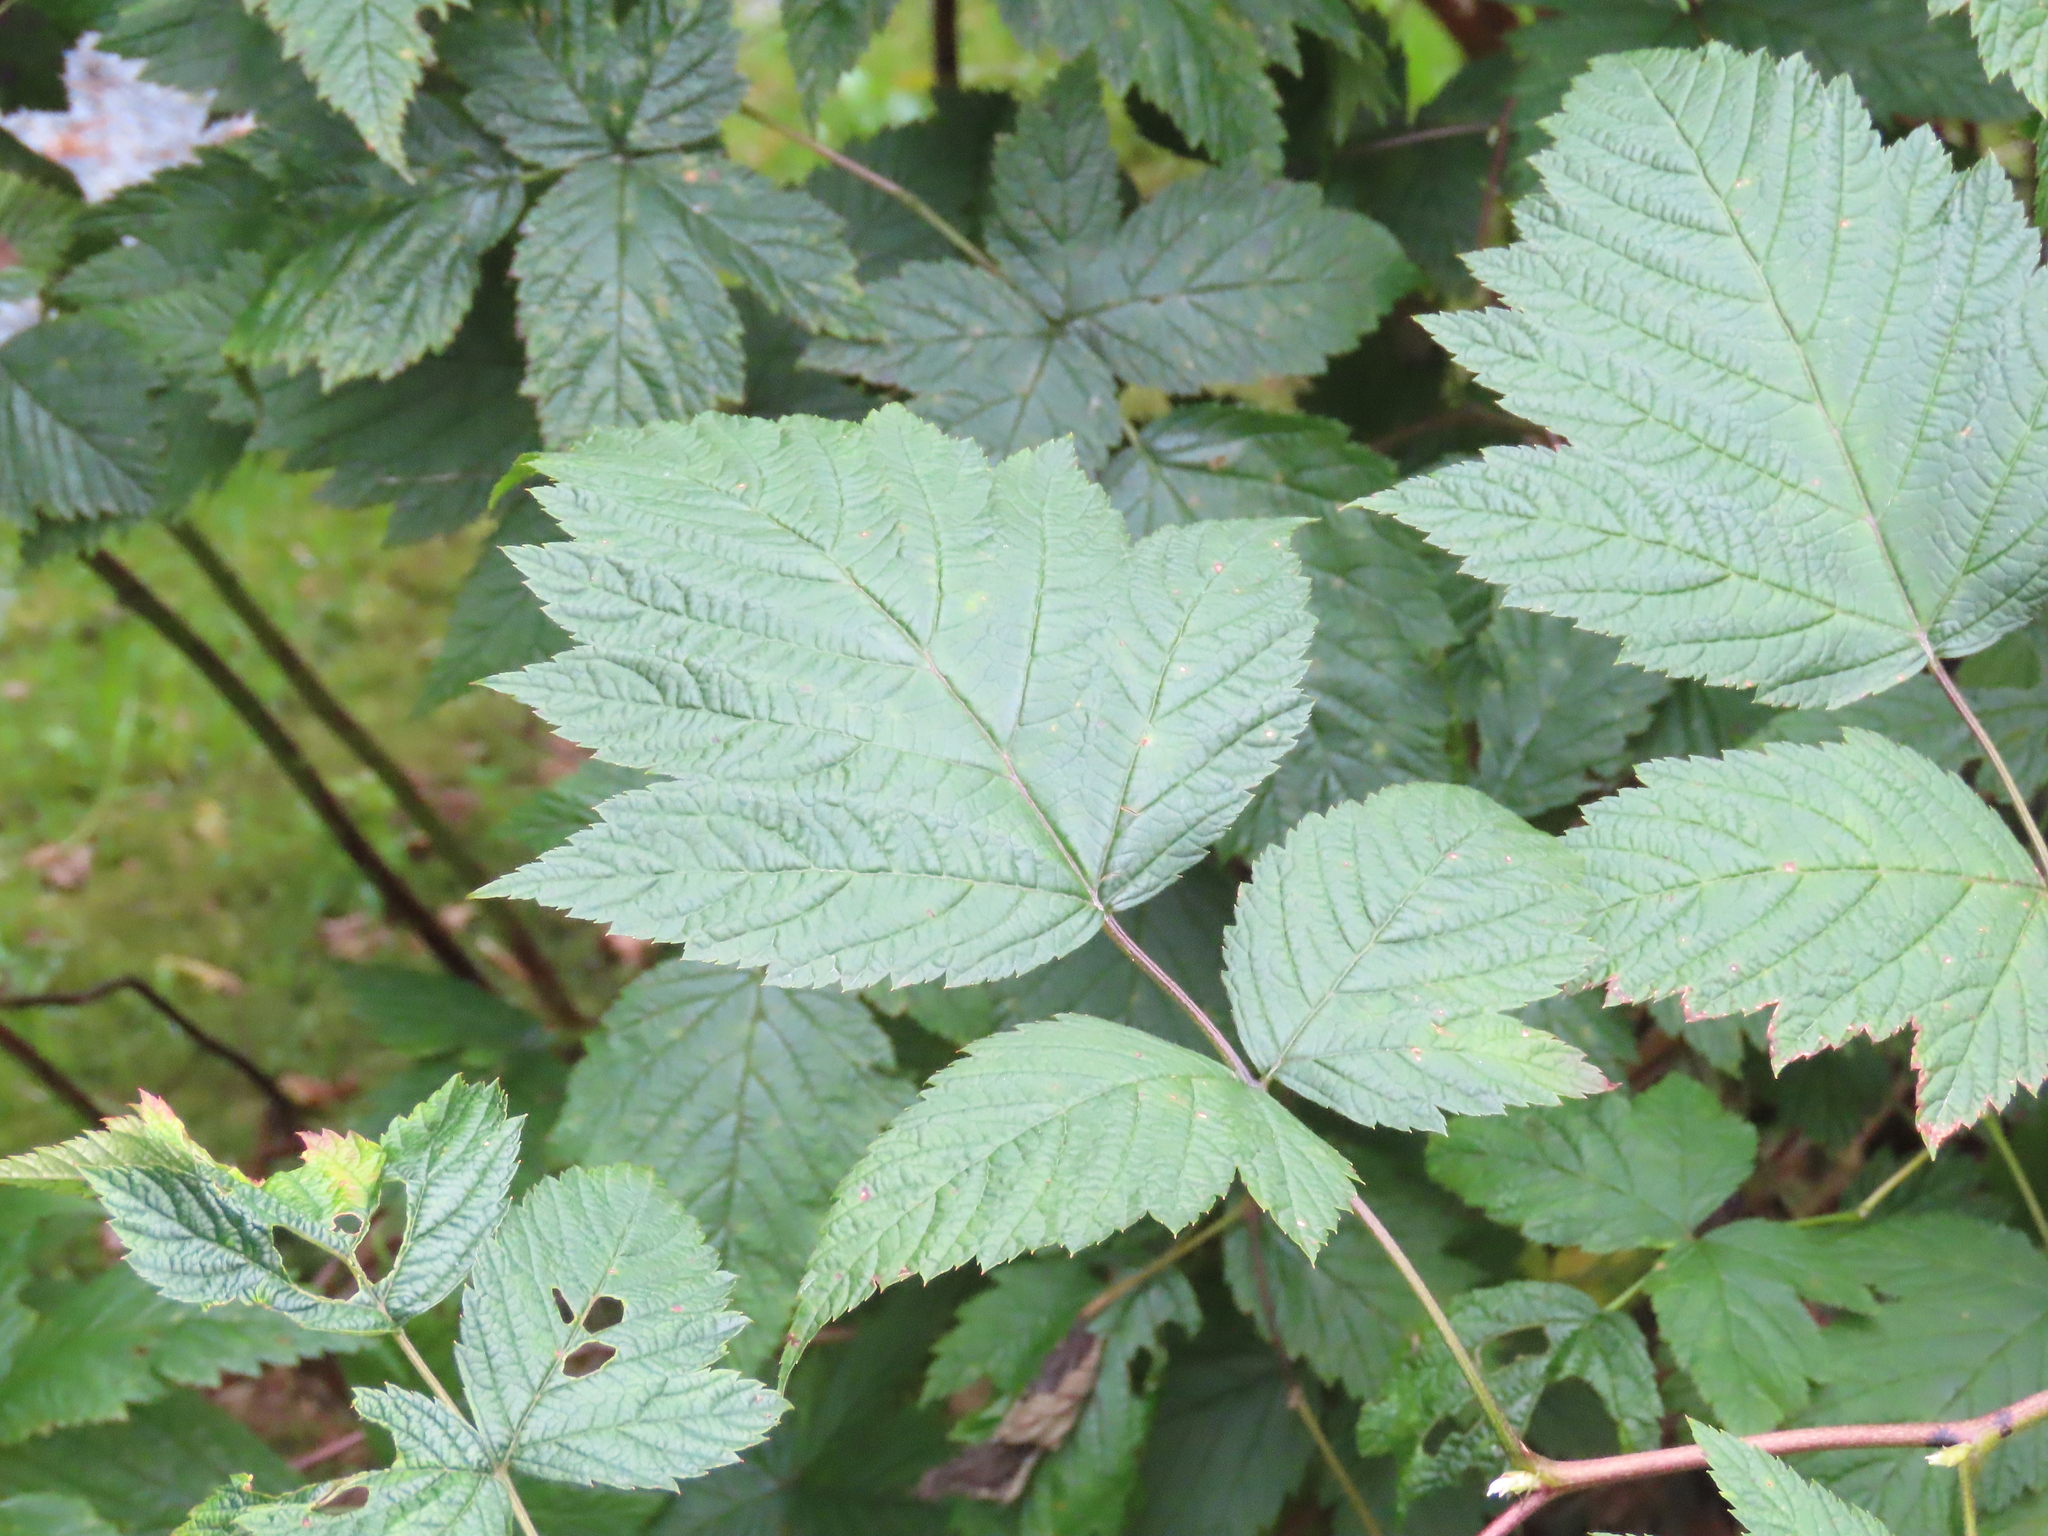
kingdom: Plantae
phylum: Tracheophyta
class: Magnoliopsida
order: Rosales
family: Rosaceae
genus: Rubus
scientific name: Rubus spectabilis
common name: Salmonberry
